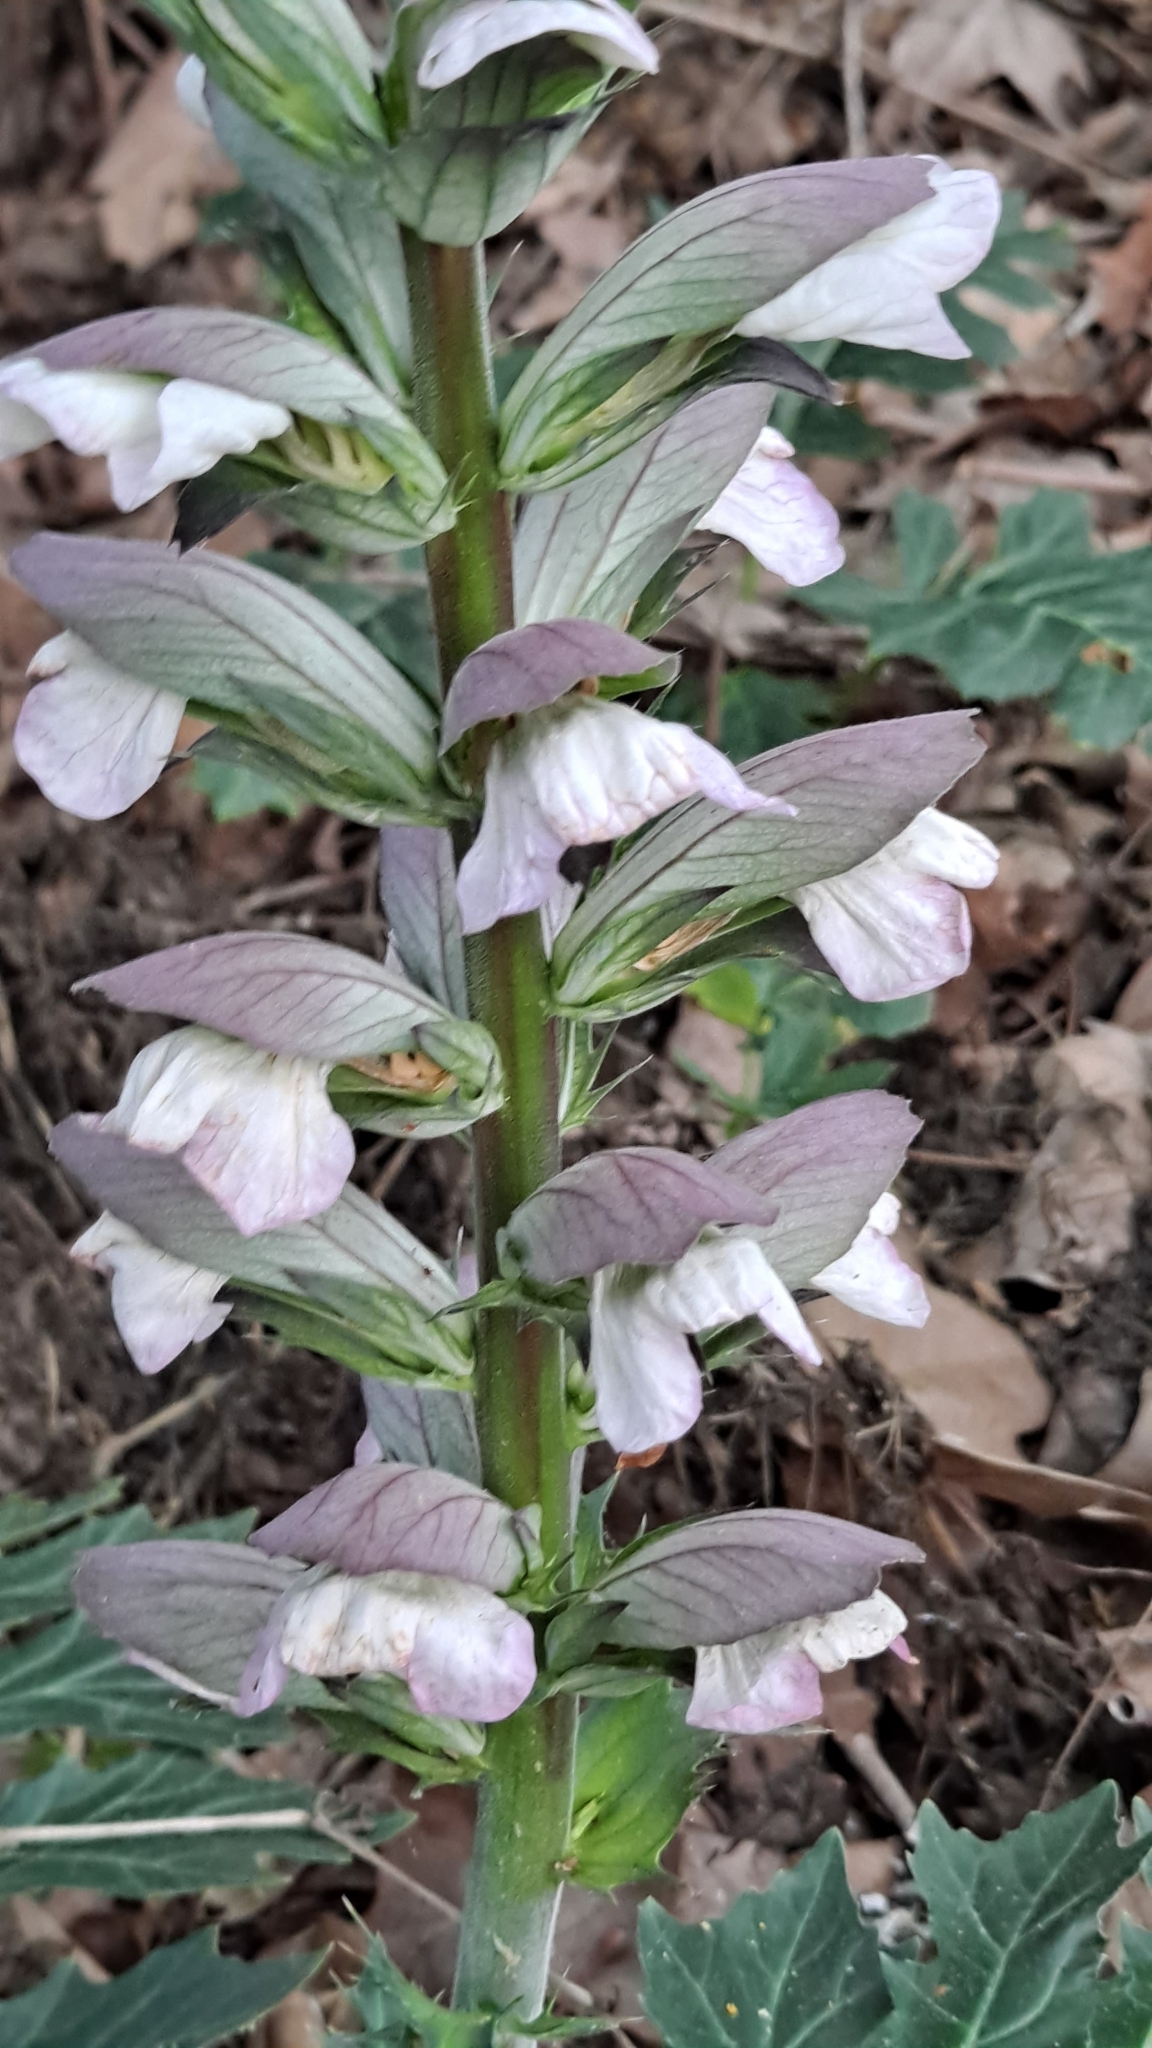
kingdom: Plantae
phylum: Tracheophyta
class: Magnoliopsida
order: Lamiales
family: Acanthaceae
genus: Acanthus
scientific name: Acanthus mollis
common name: Bear's-breech
